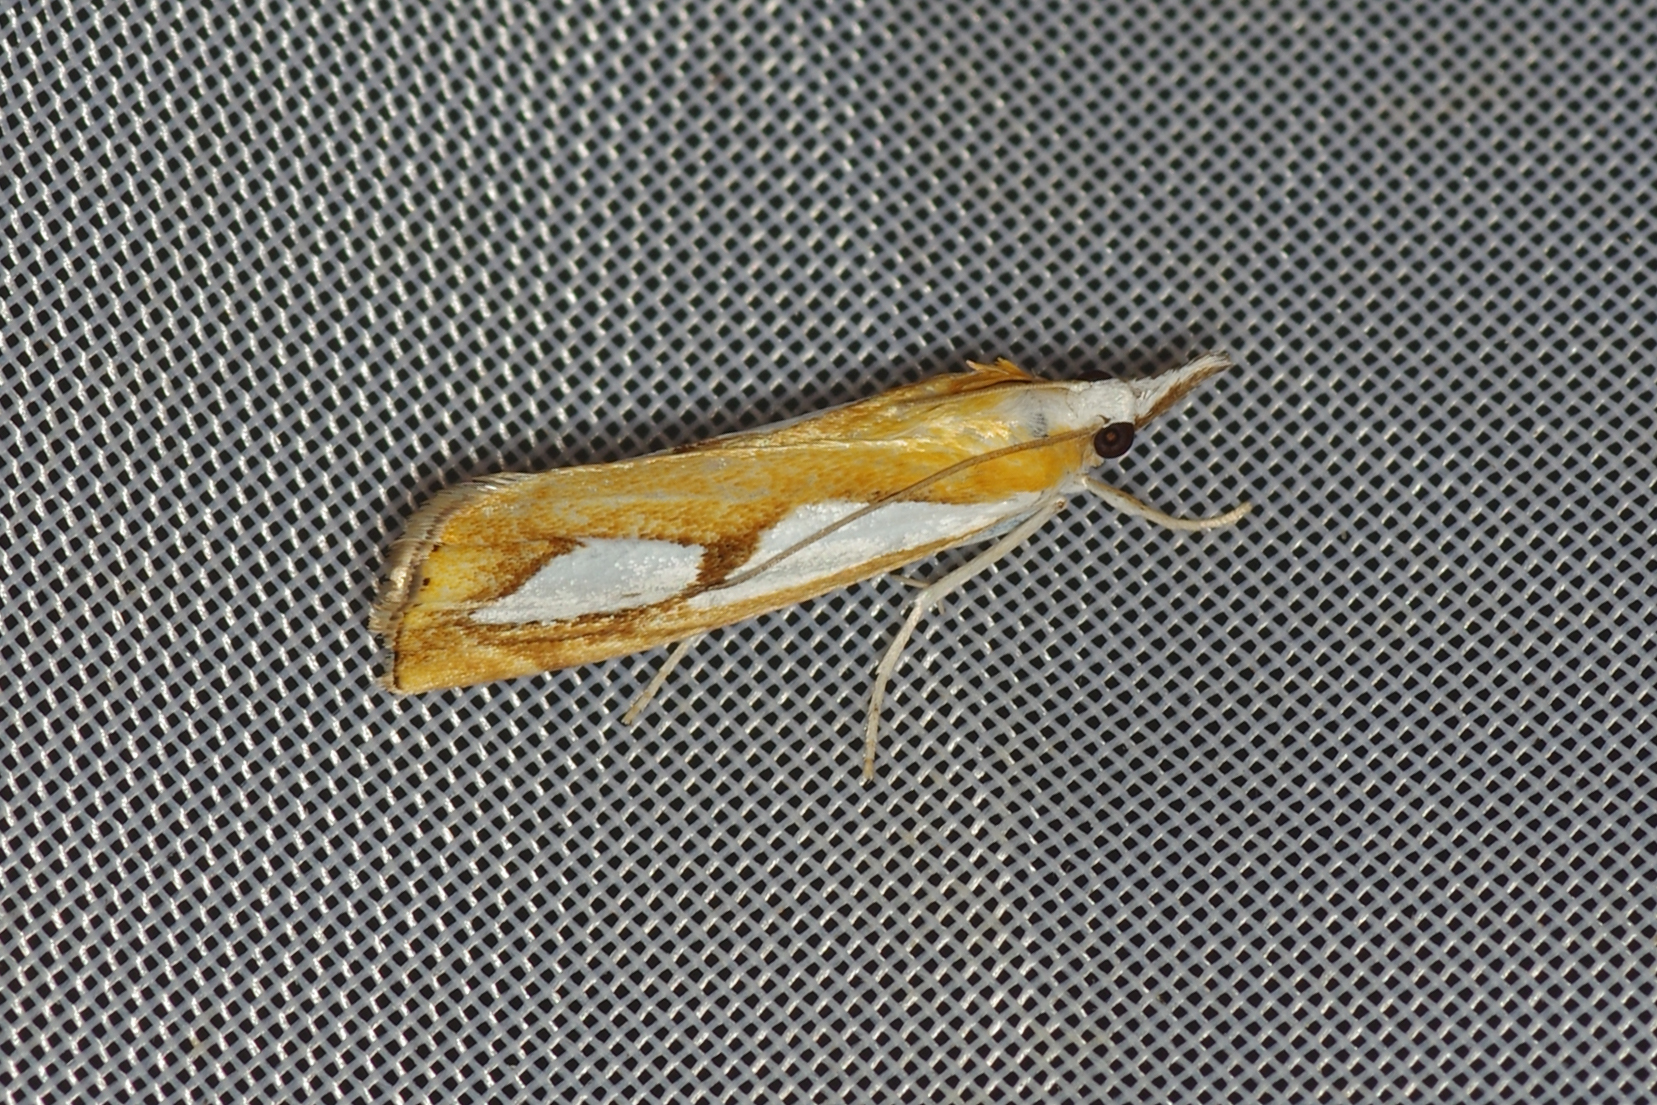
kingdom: Animalia
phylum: Arthropoda
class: Insecta
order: Lepidoptera
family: Crambidae
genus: Catoptria
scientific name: Catoptria pinella
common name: Pearl grass-veneer
